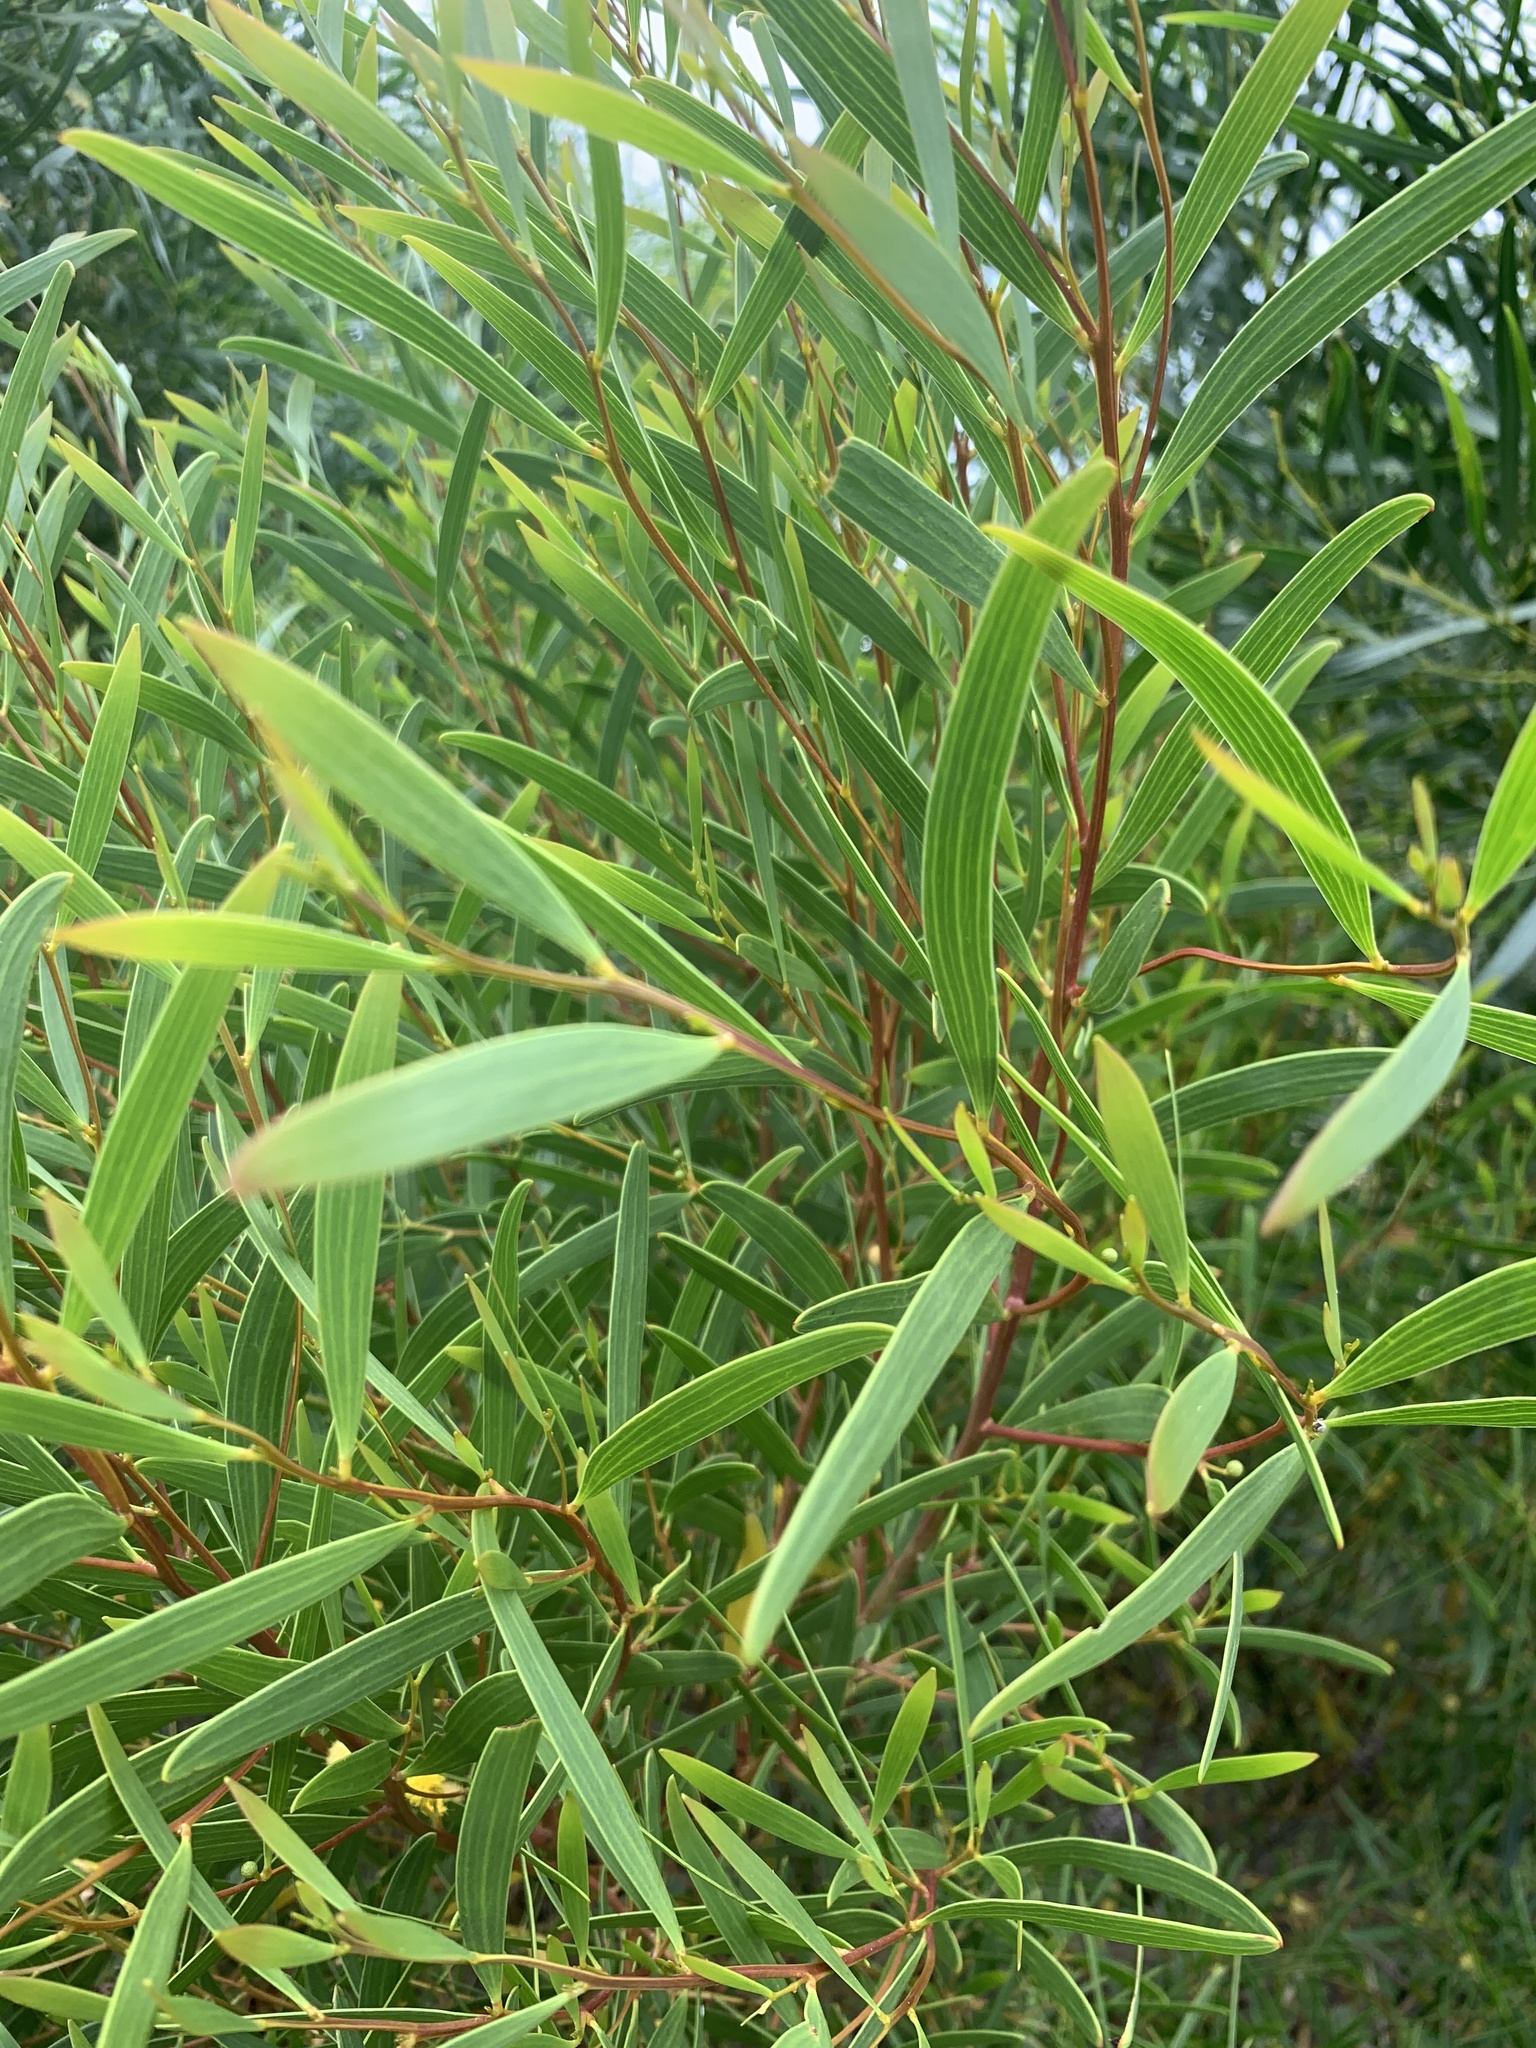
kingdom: Plantae
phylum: Tracheophyta
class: Magnoliopsida
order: Fabales
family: Fabaceae
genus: Acacia
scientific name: Acacia cyclops
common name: Coastal wattle
